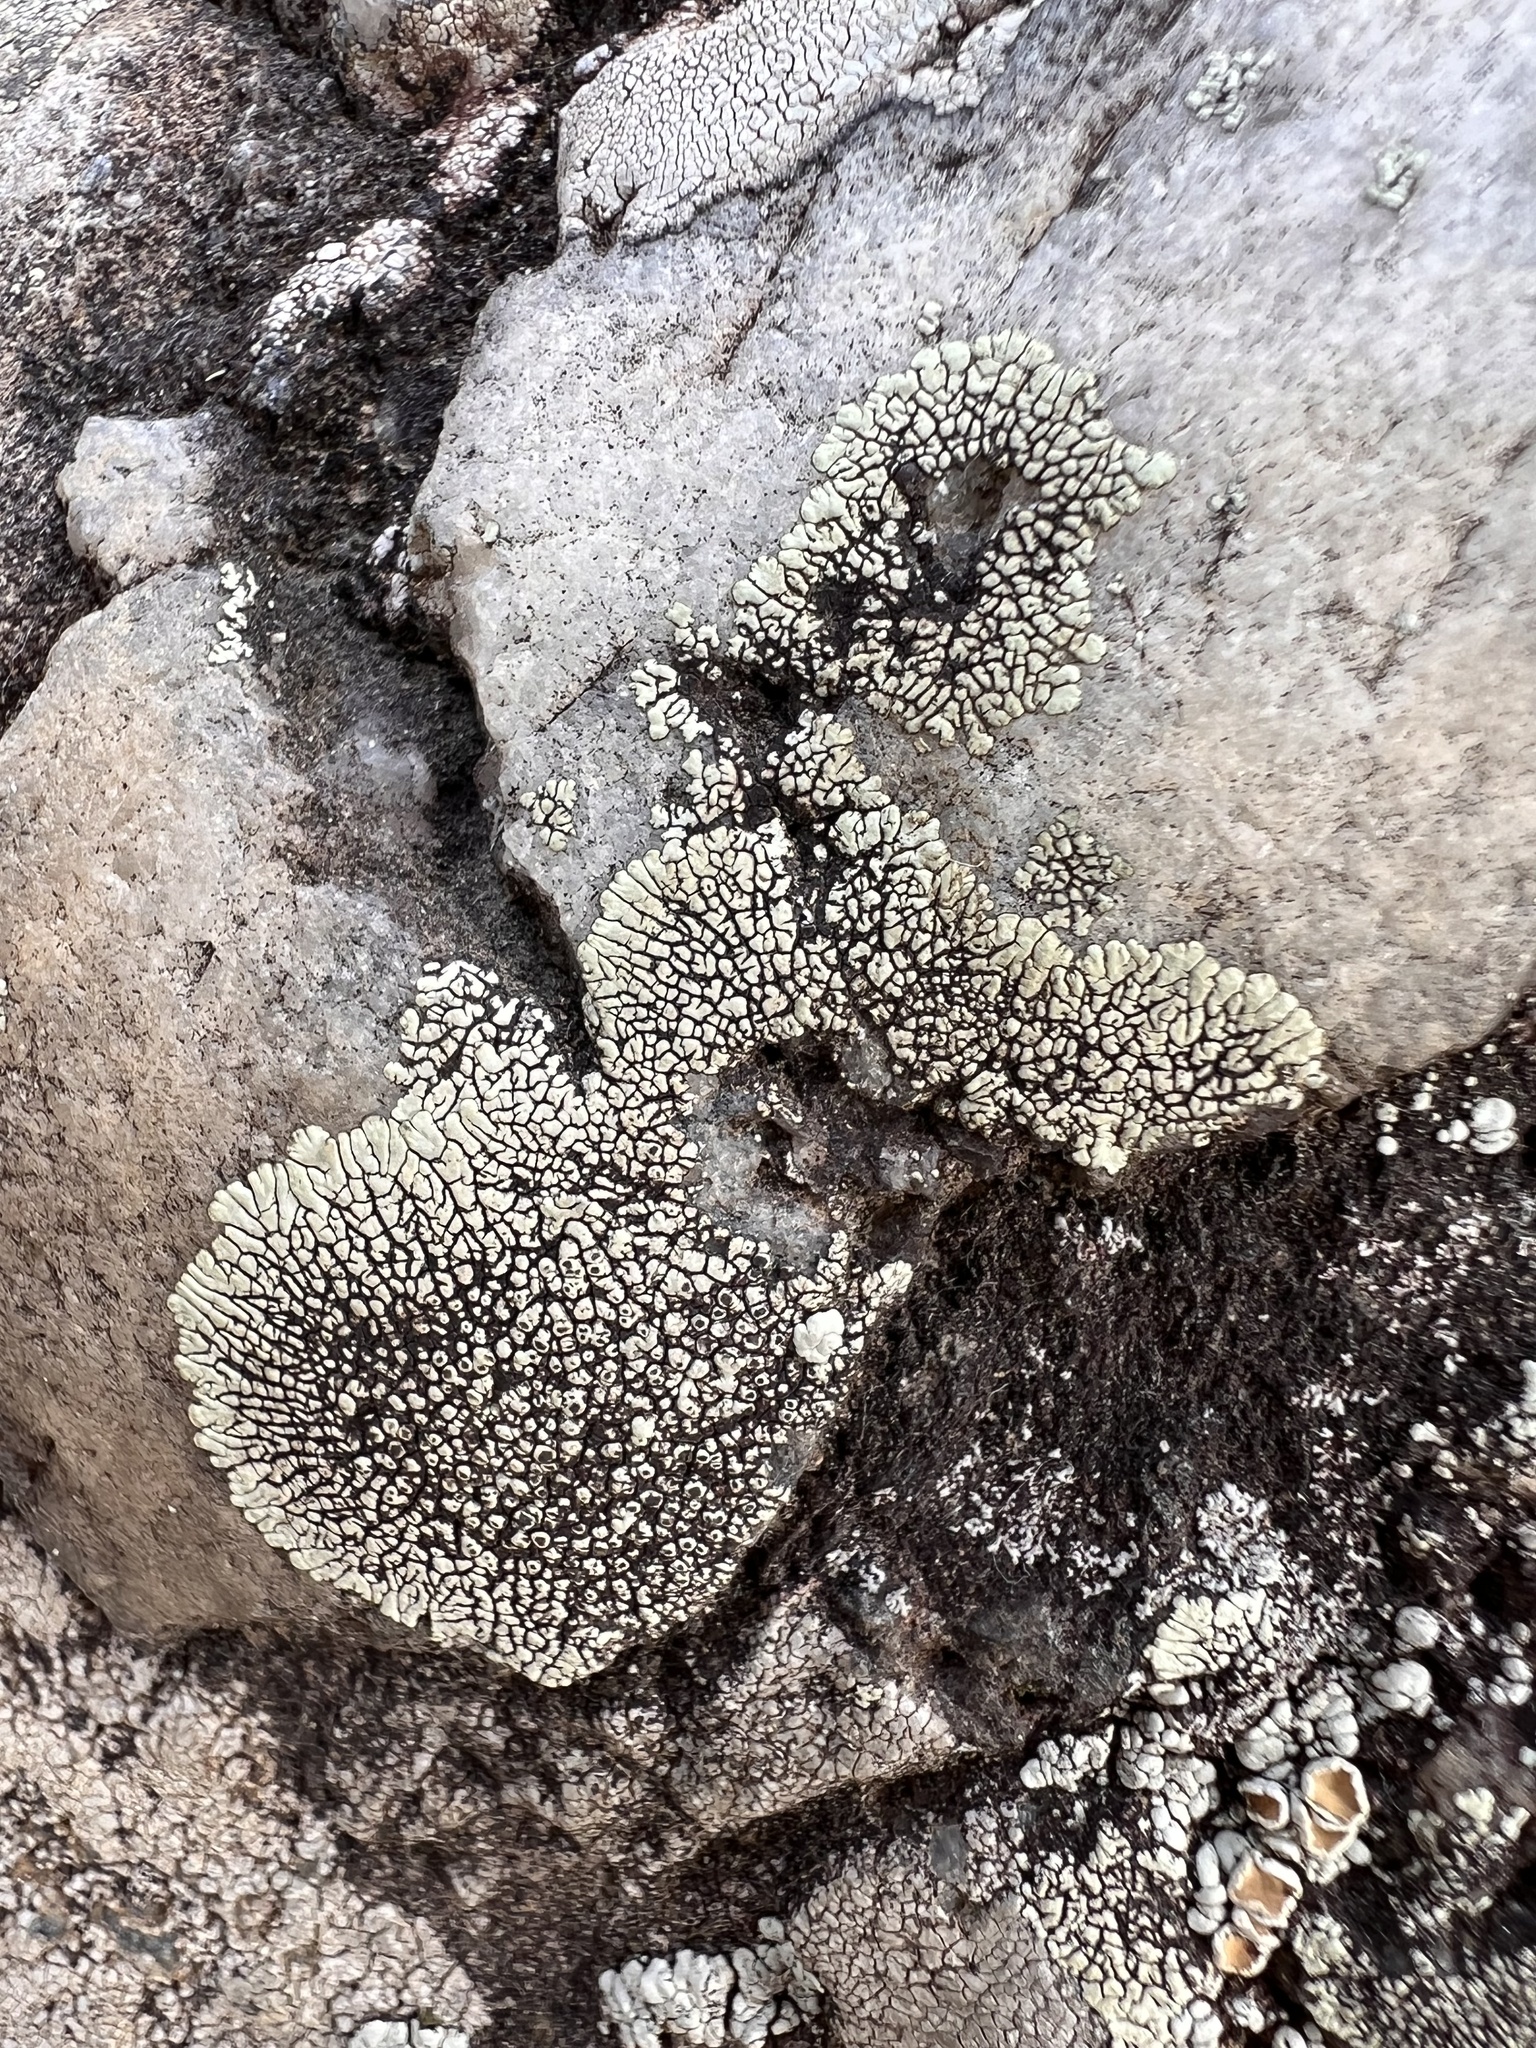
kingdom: Fungi
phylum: Ascomycota
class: Lecanoromycetes
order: Caliciales
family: Caliciaceae
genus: Dimelaena
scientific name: Dimelaena oreina
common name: Golden moonglow lichen
